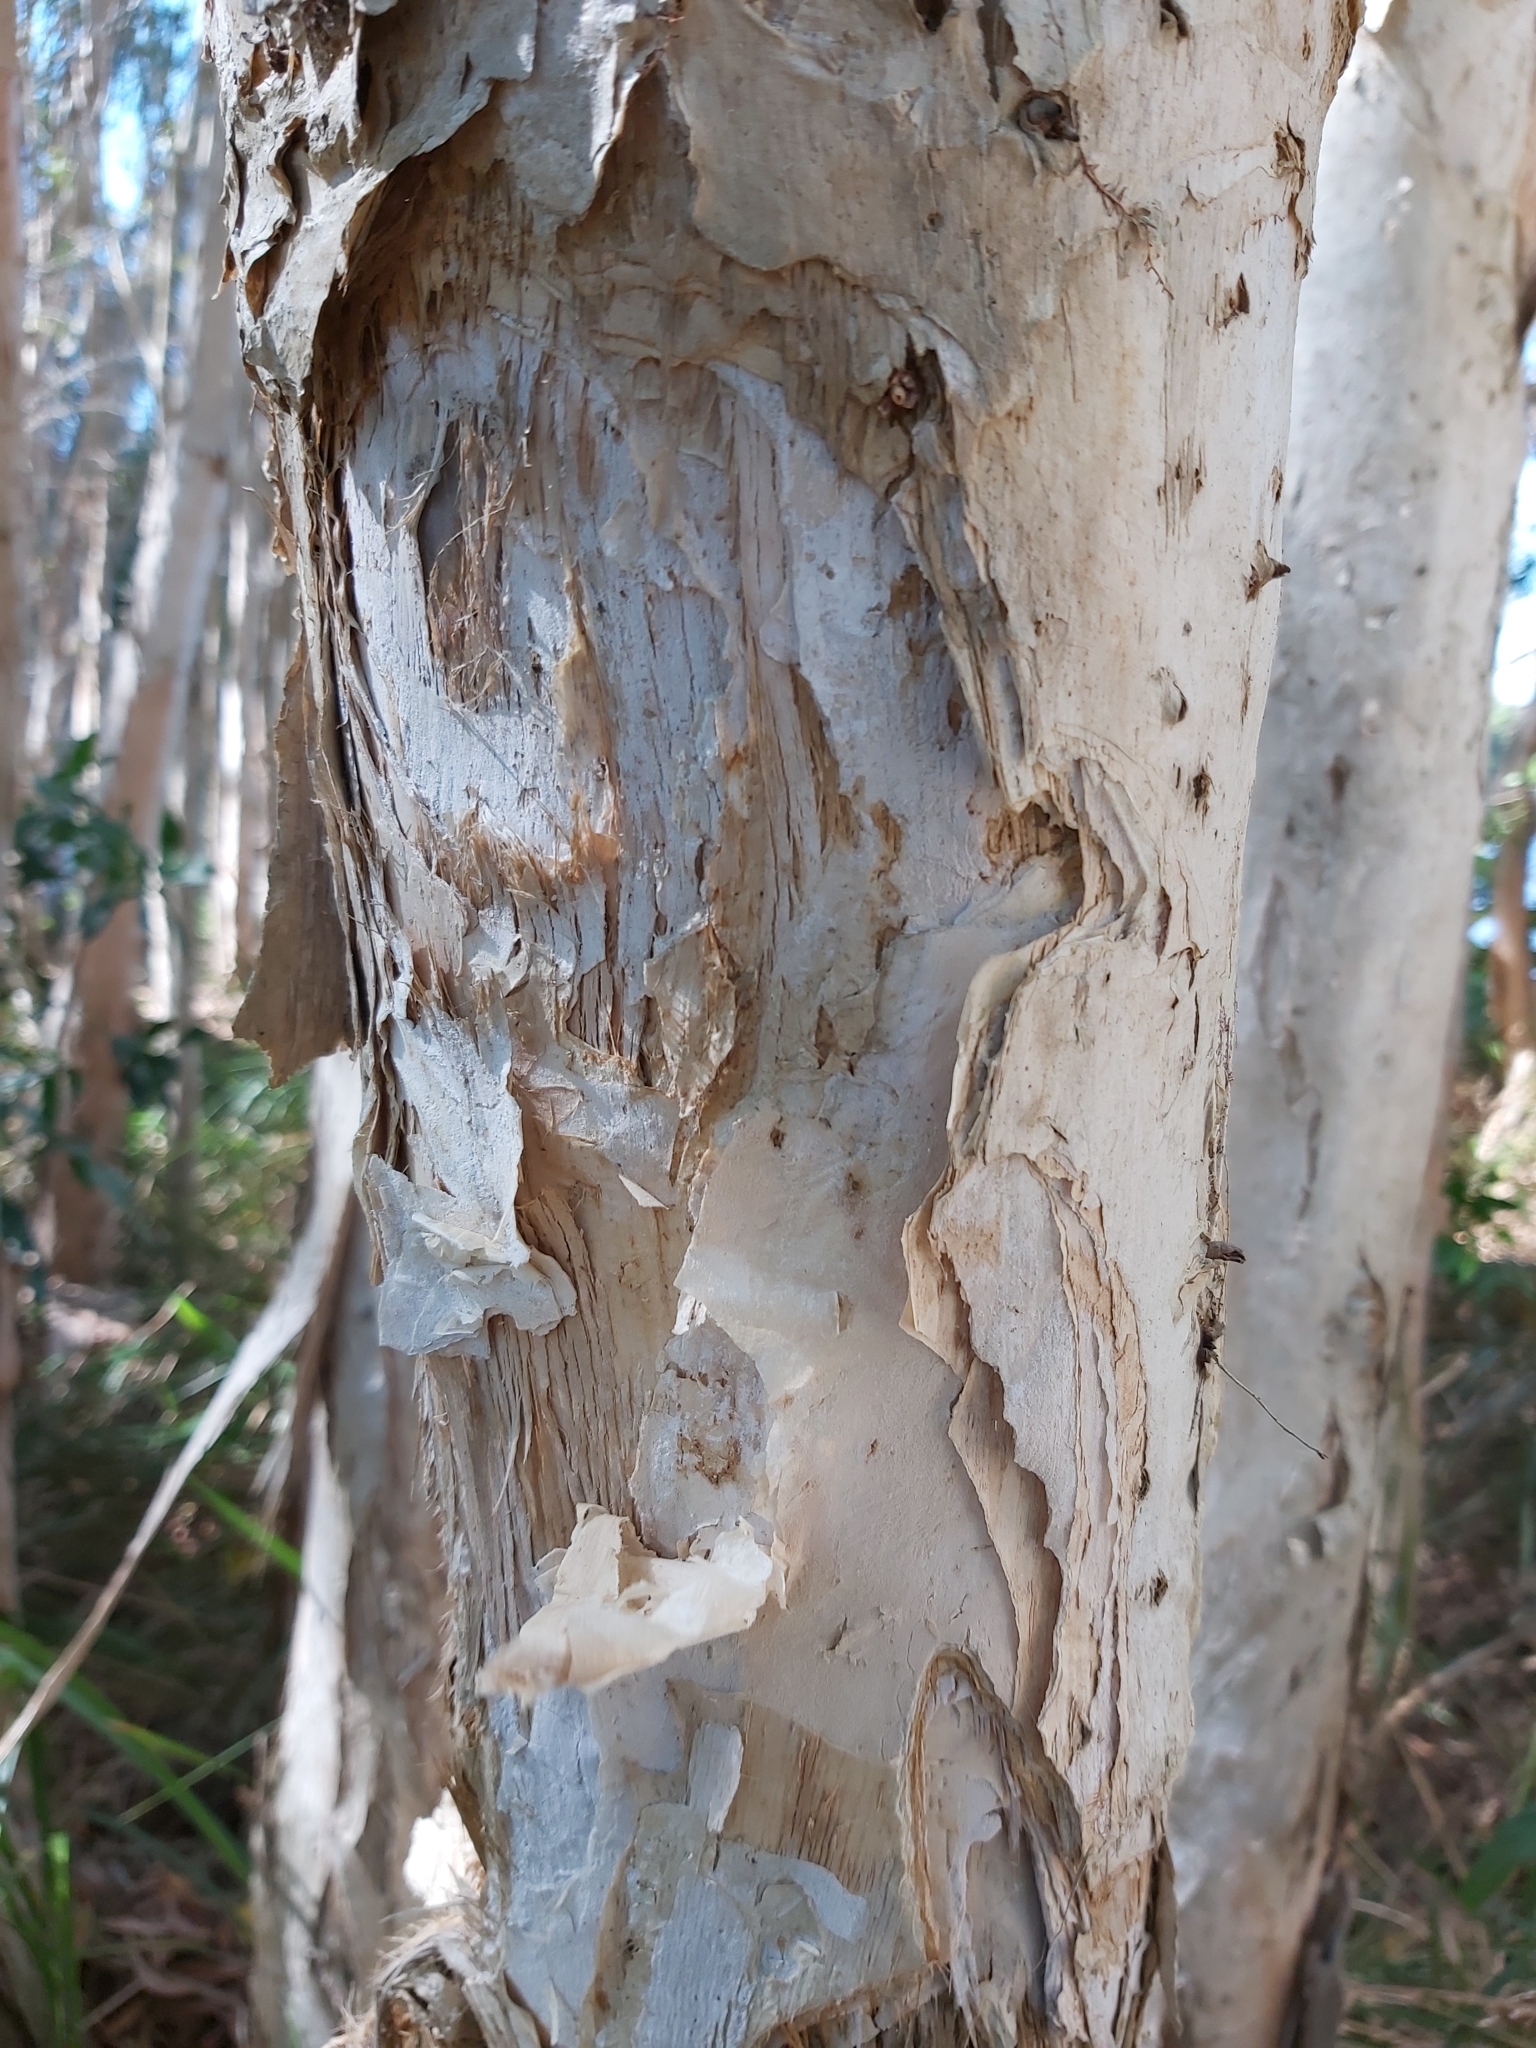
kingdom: Plantae
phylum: Tracheophyta
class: Magnoliopsida
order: Myrtales
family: Myrtaceae
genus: Melaleuca
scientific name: Melaleuca leucadendra
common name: Weeping paperbark
